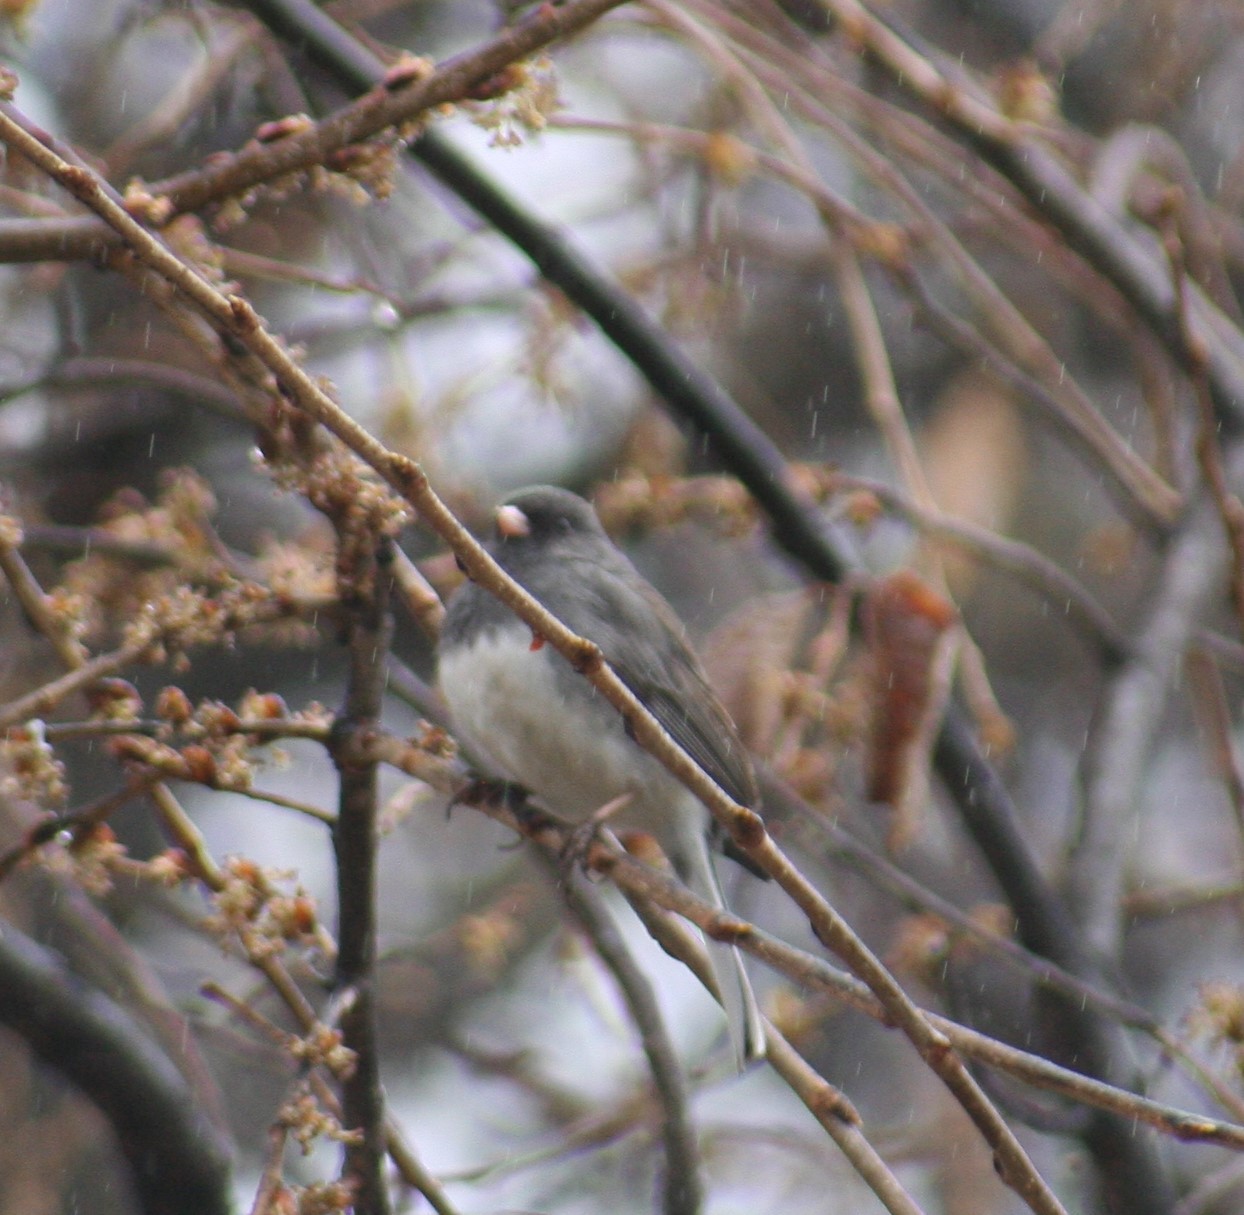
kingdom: Animalia
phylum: Chordata
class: Aves
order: Passeriformes
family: Passerellidae
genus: Junco
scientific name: Junco hyemalis
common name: Dark-eyed junco
